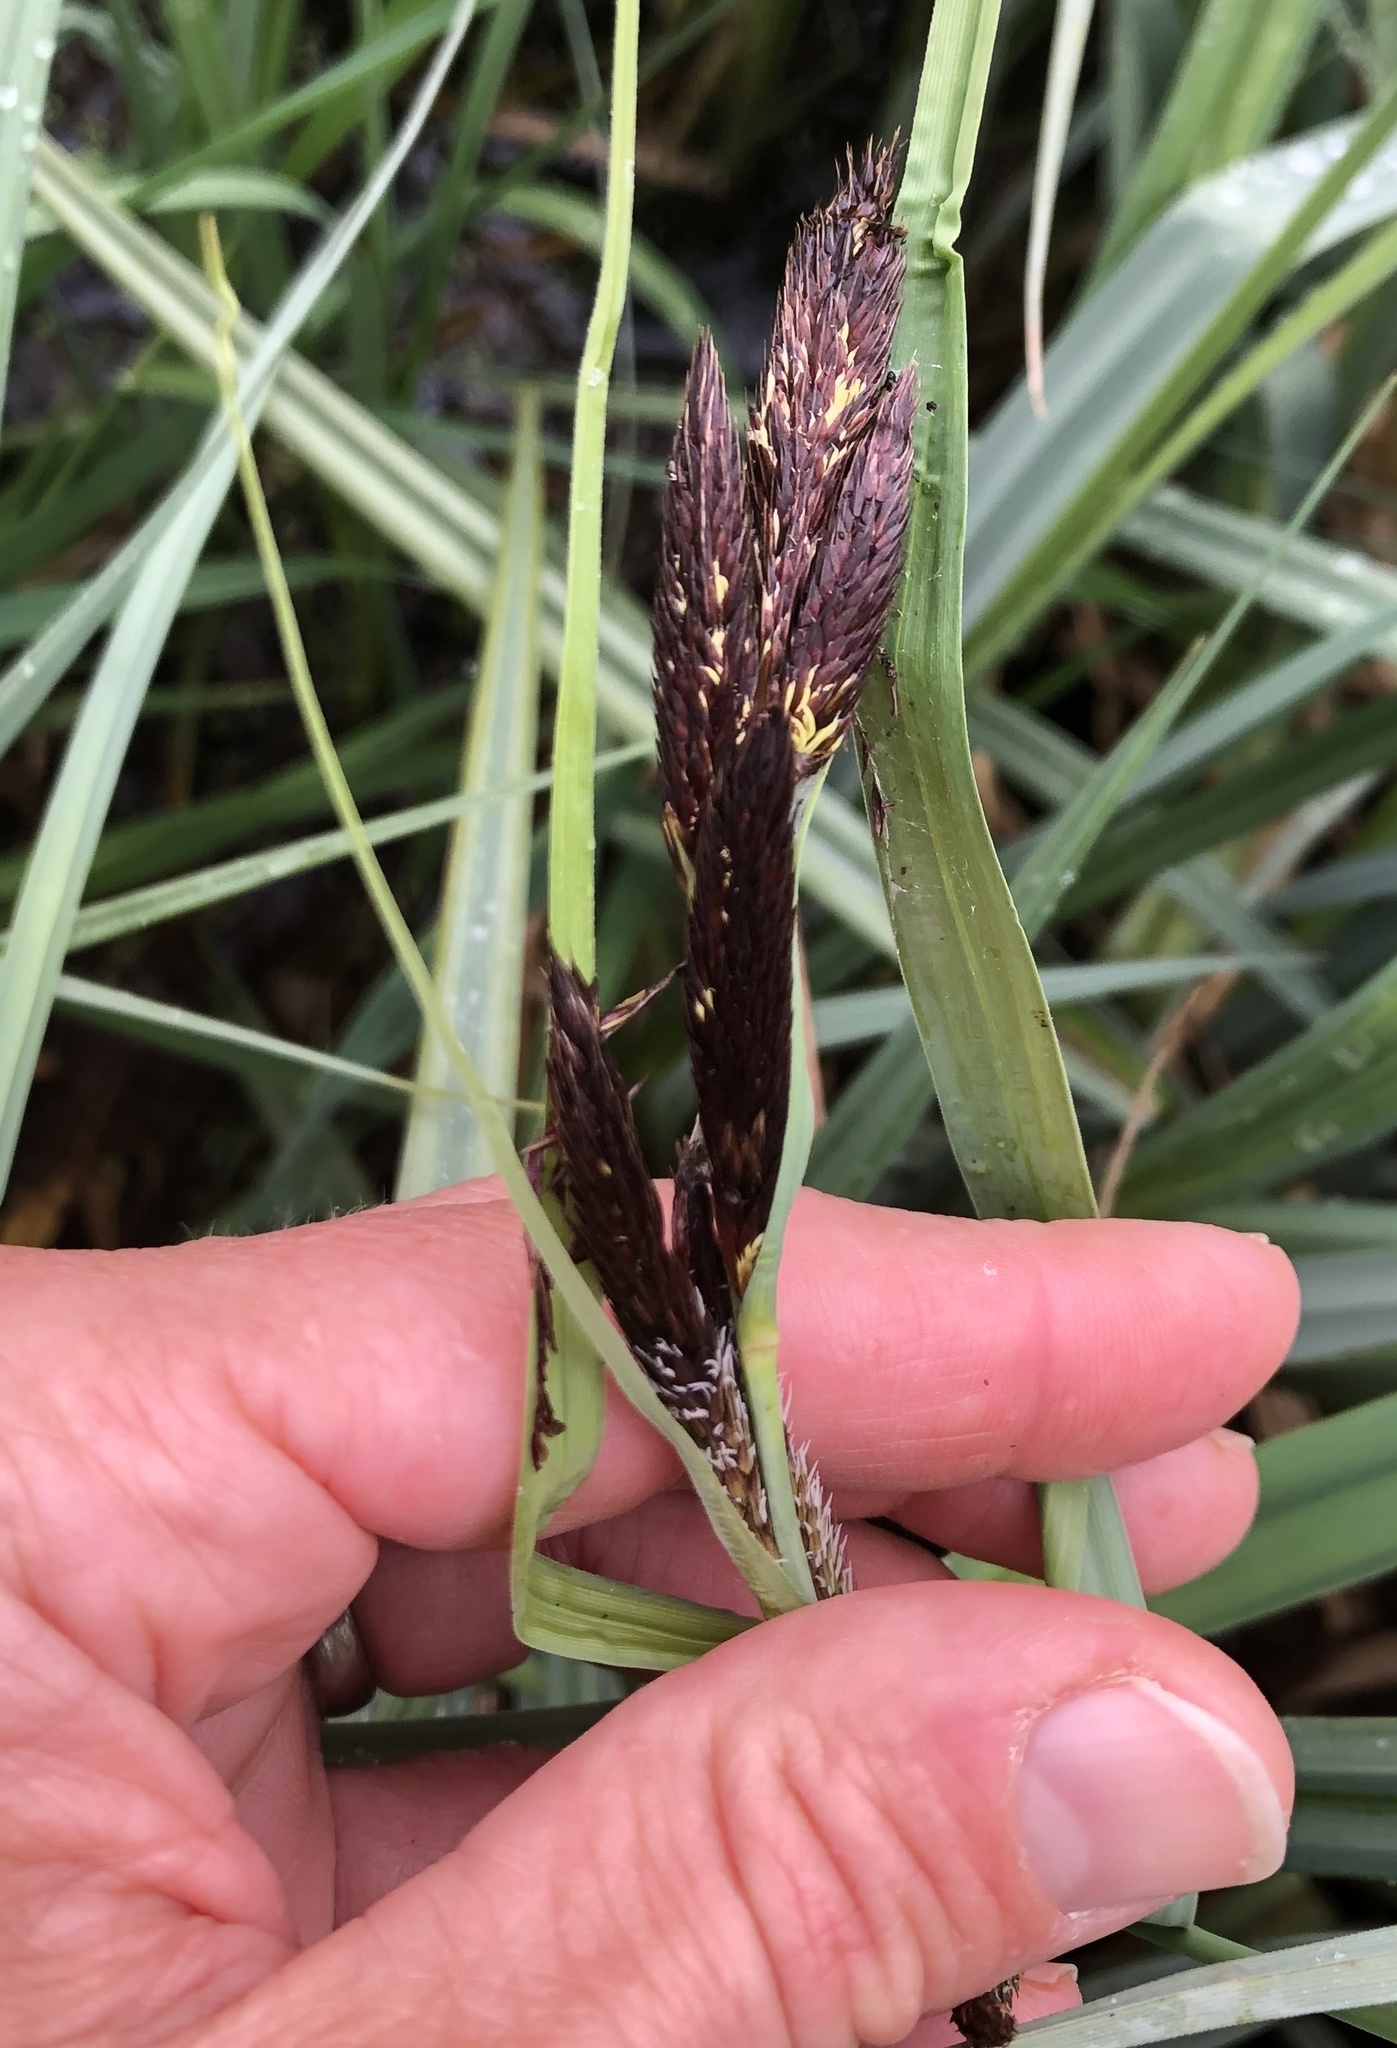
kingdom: Plantae
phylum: Tracheophyta
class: Liliopsida
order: Poales
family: Cyperaceae
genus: Carex
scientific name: Carex riparia
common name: Greater pond-sedge
